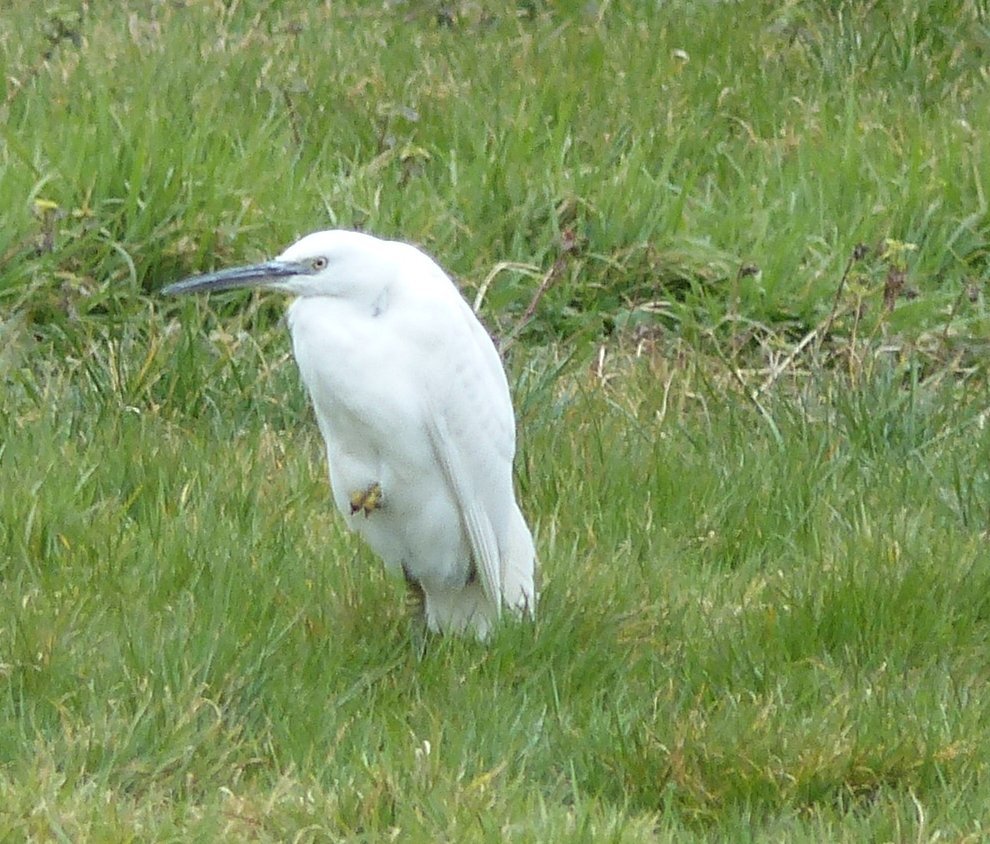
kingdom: Animalia
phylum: Chordata
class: Aves
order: Pelecaniformes
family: Ardeidae
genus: Egretta
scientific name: Egretta garzetta
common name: Little egret
